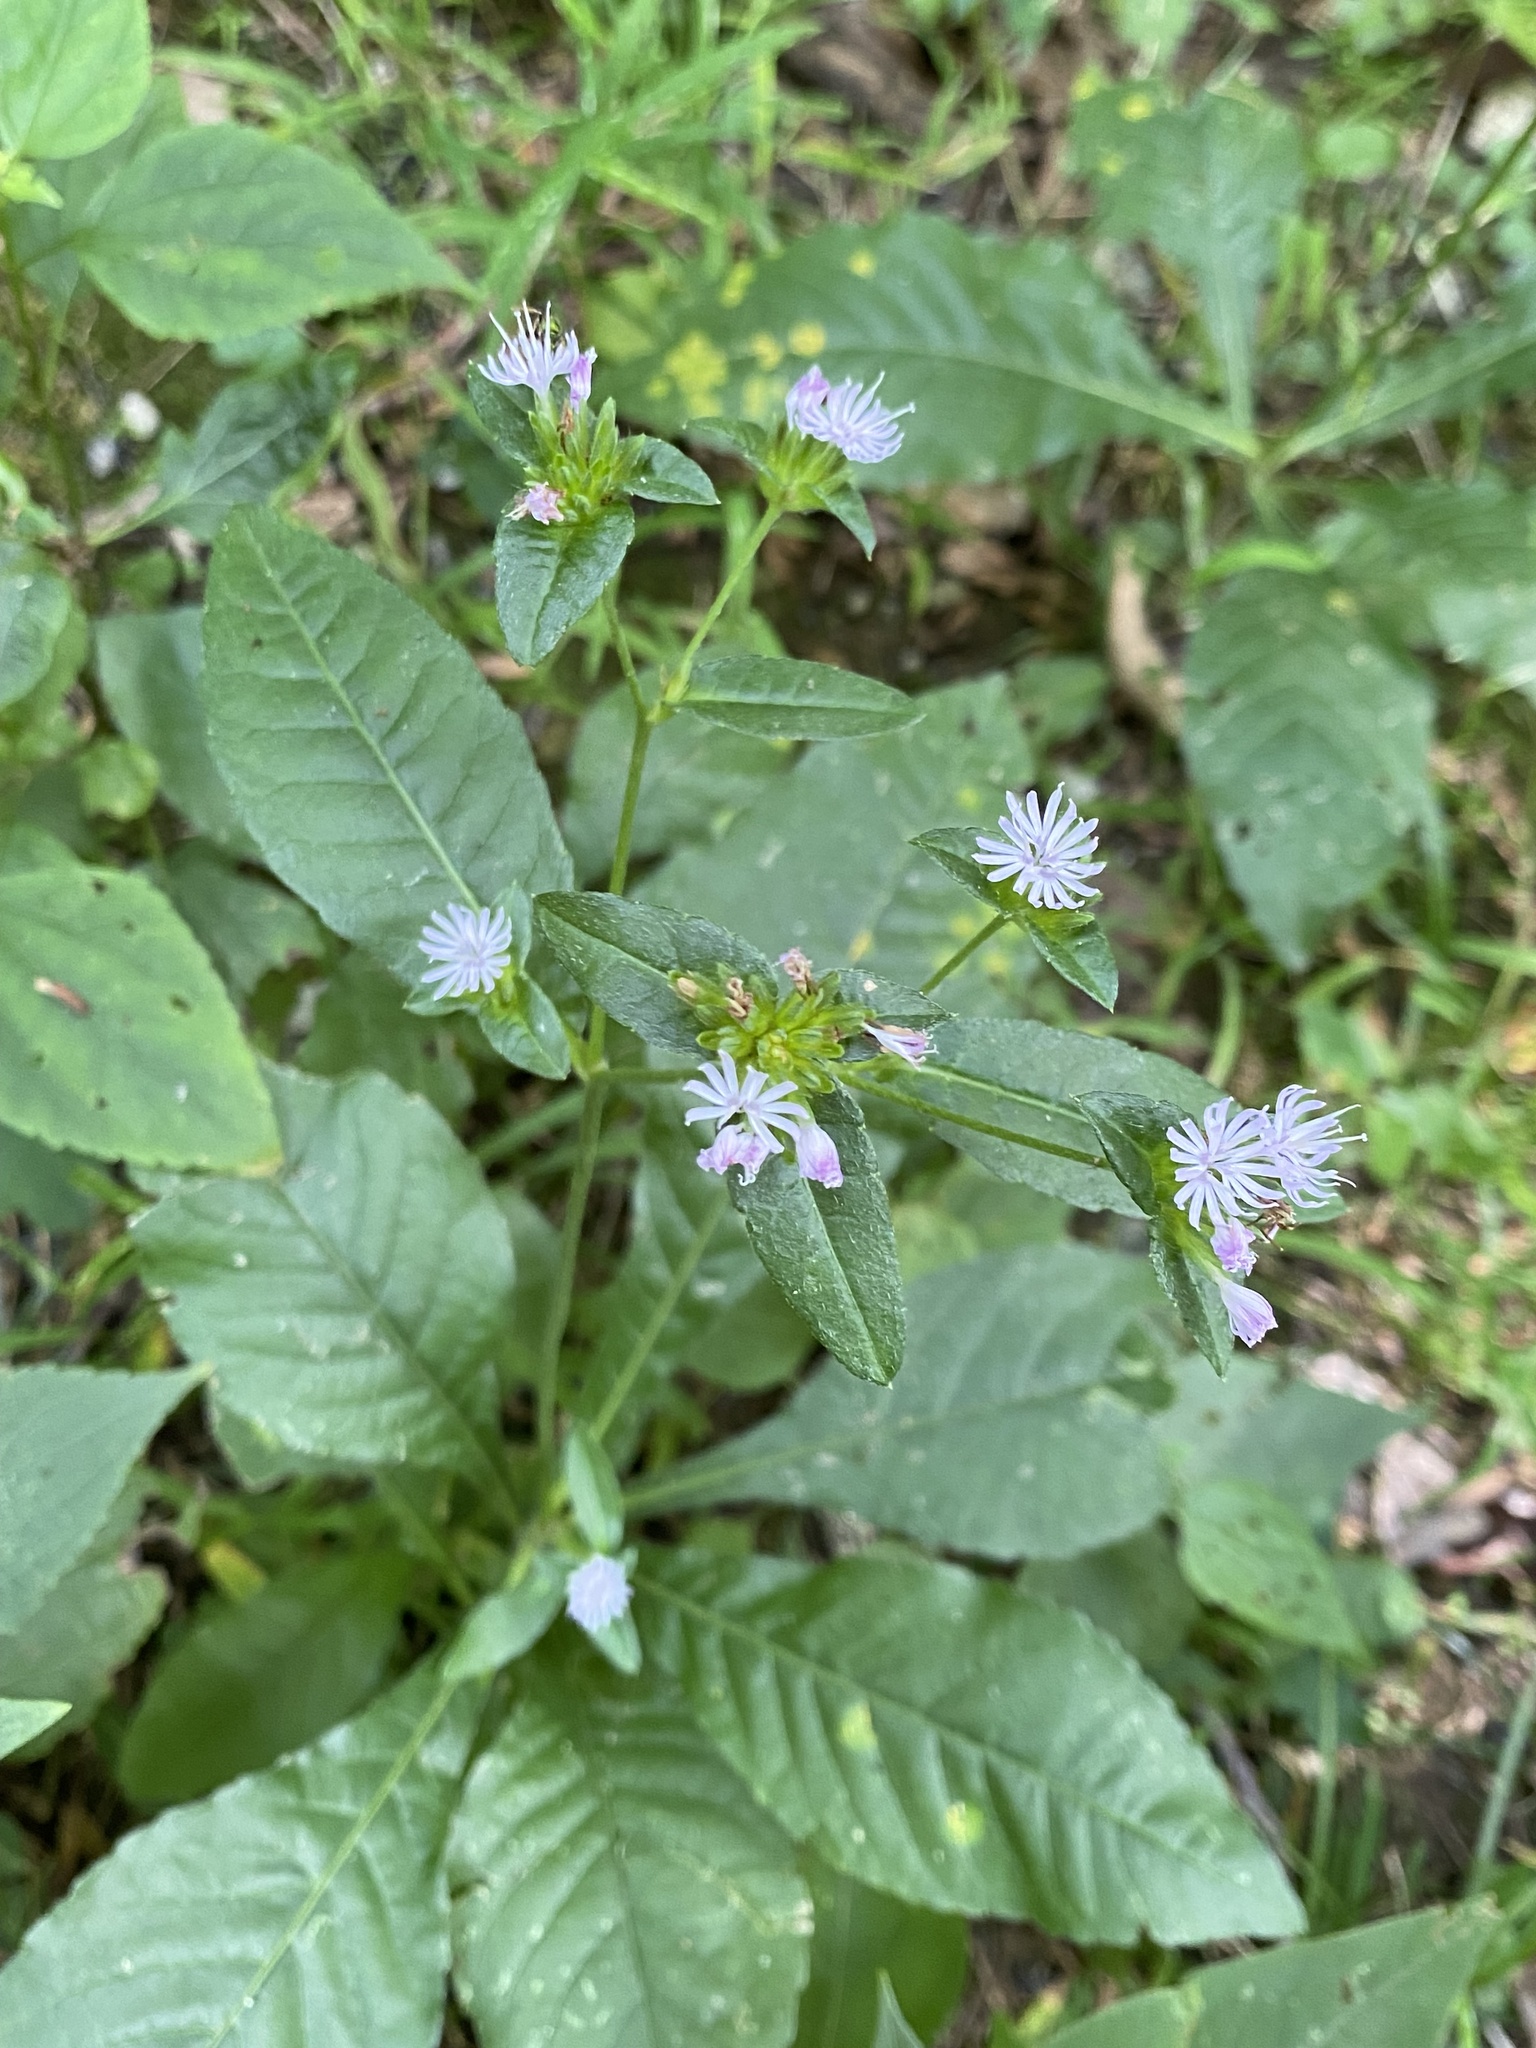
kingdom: Plantae
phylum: Tracheophyta
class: Magnoliopsida
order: Asterales
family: Asteraceae
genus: Elephantopus
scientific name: Elephantopus carolinianus
